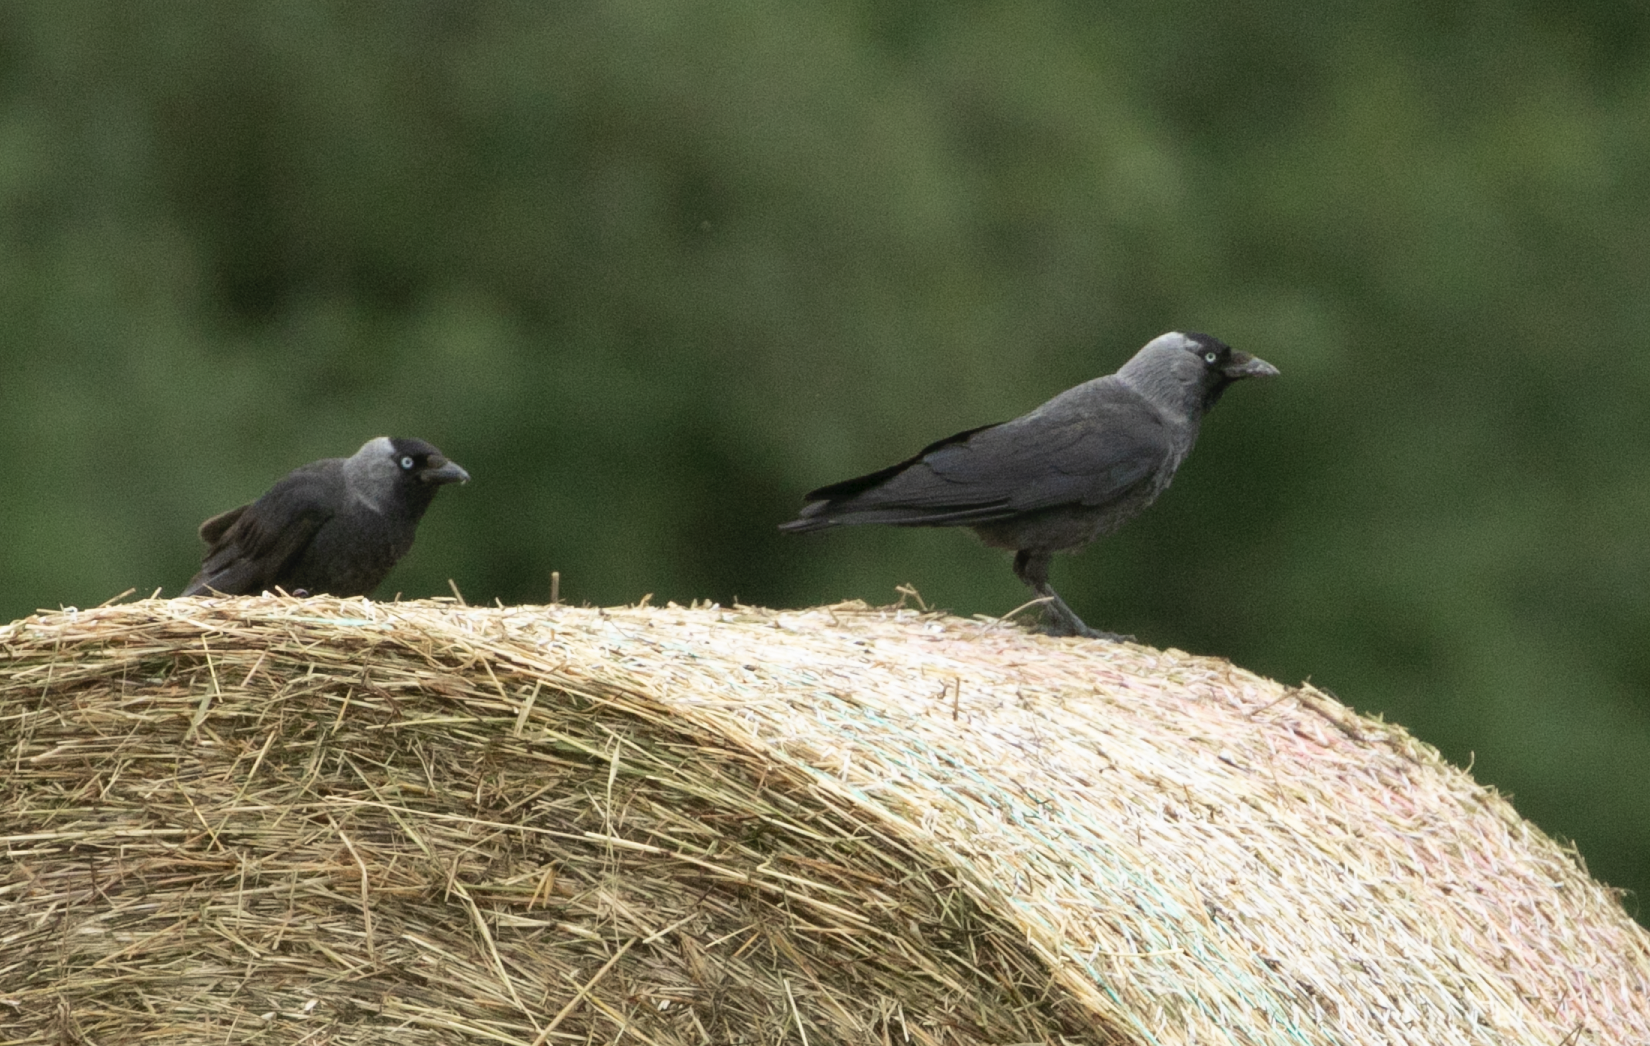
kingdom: Animalia
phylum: Chordata
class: Aves
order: Passeriformes
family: Corvidae
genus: Coloeus
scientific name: Coloeus monedula
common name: Western jackdaw
